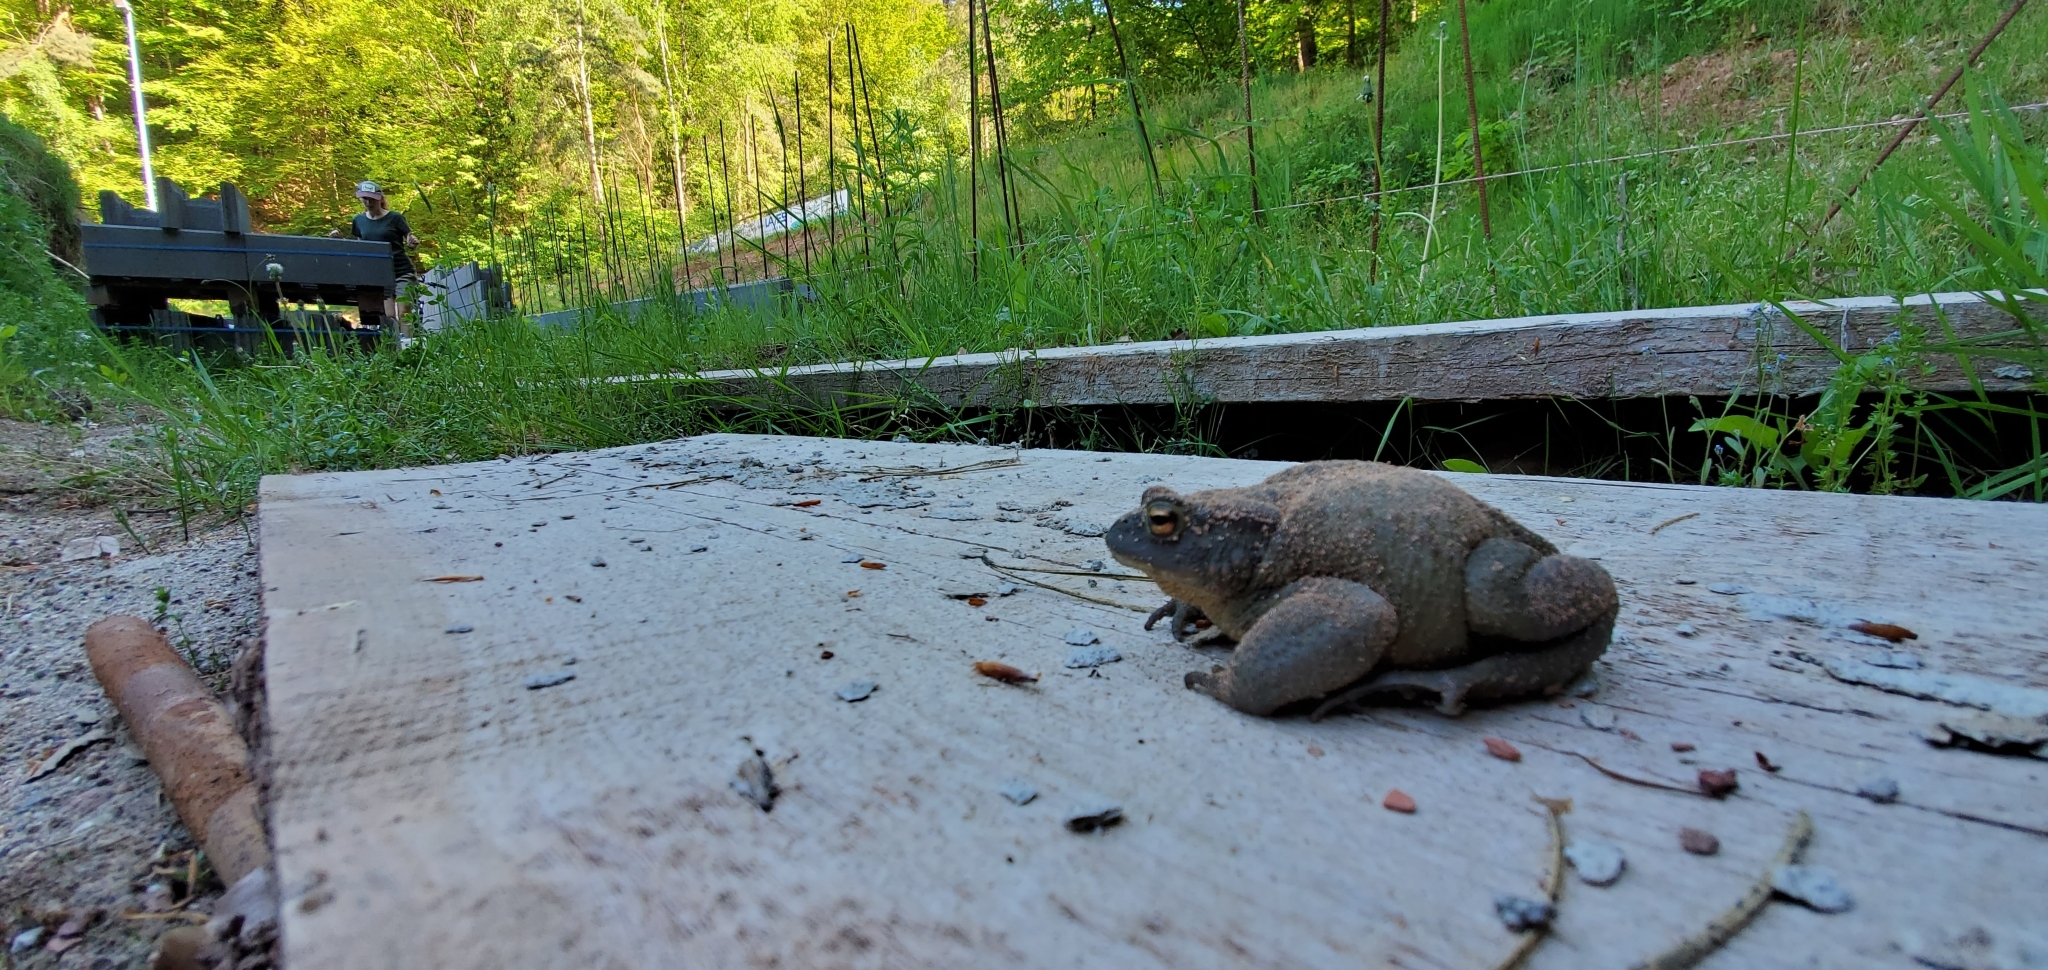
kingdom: Animalia
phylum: Chordata
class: Amphibia
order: Anura
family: Bufonidae
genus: Bufo
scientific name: Bufo bufo
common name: Common toad
